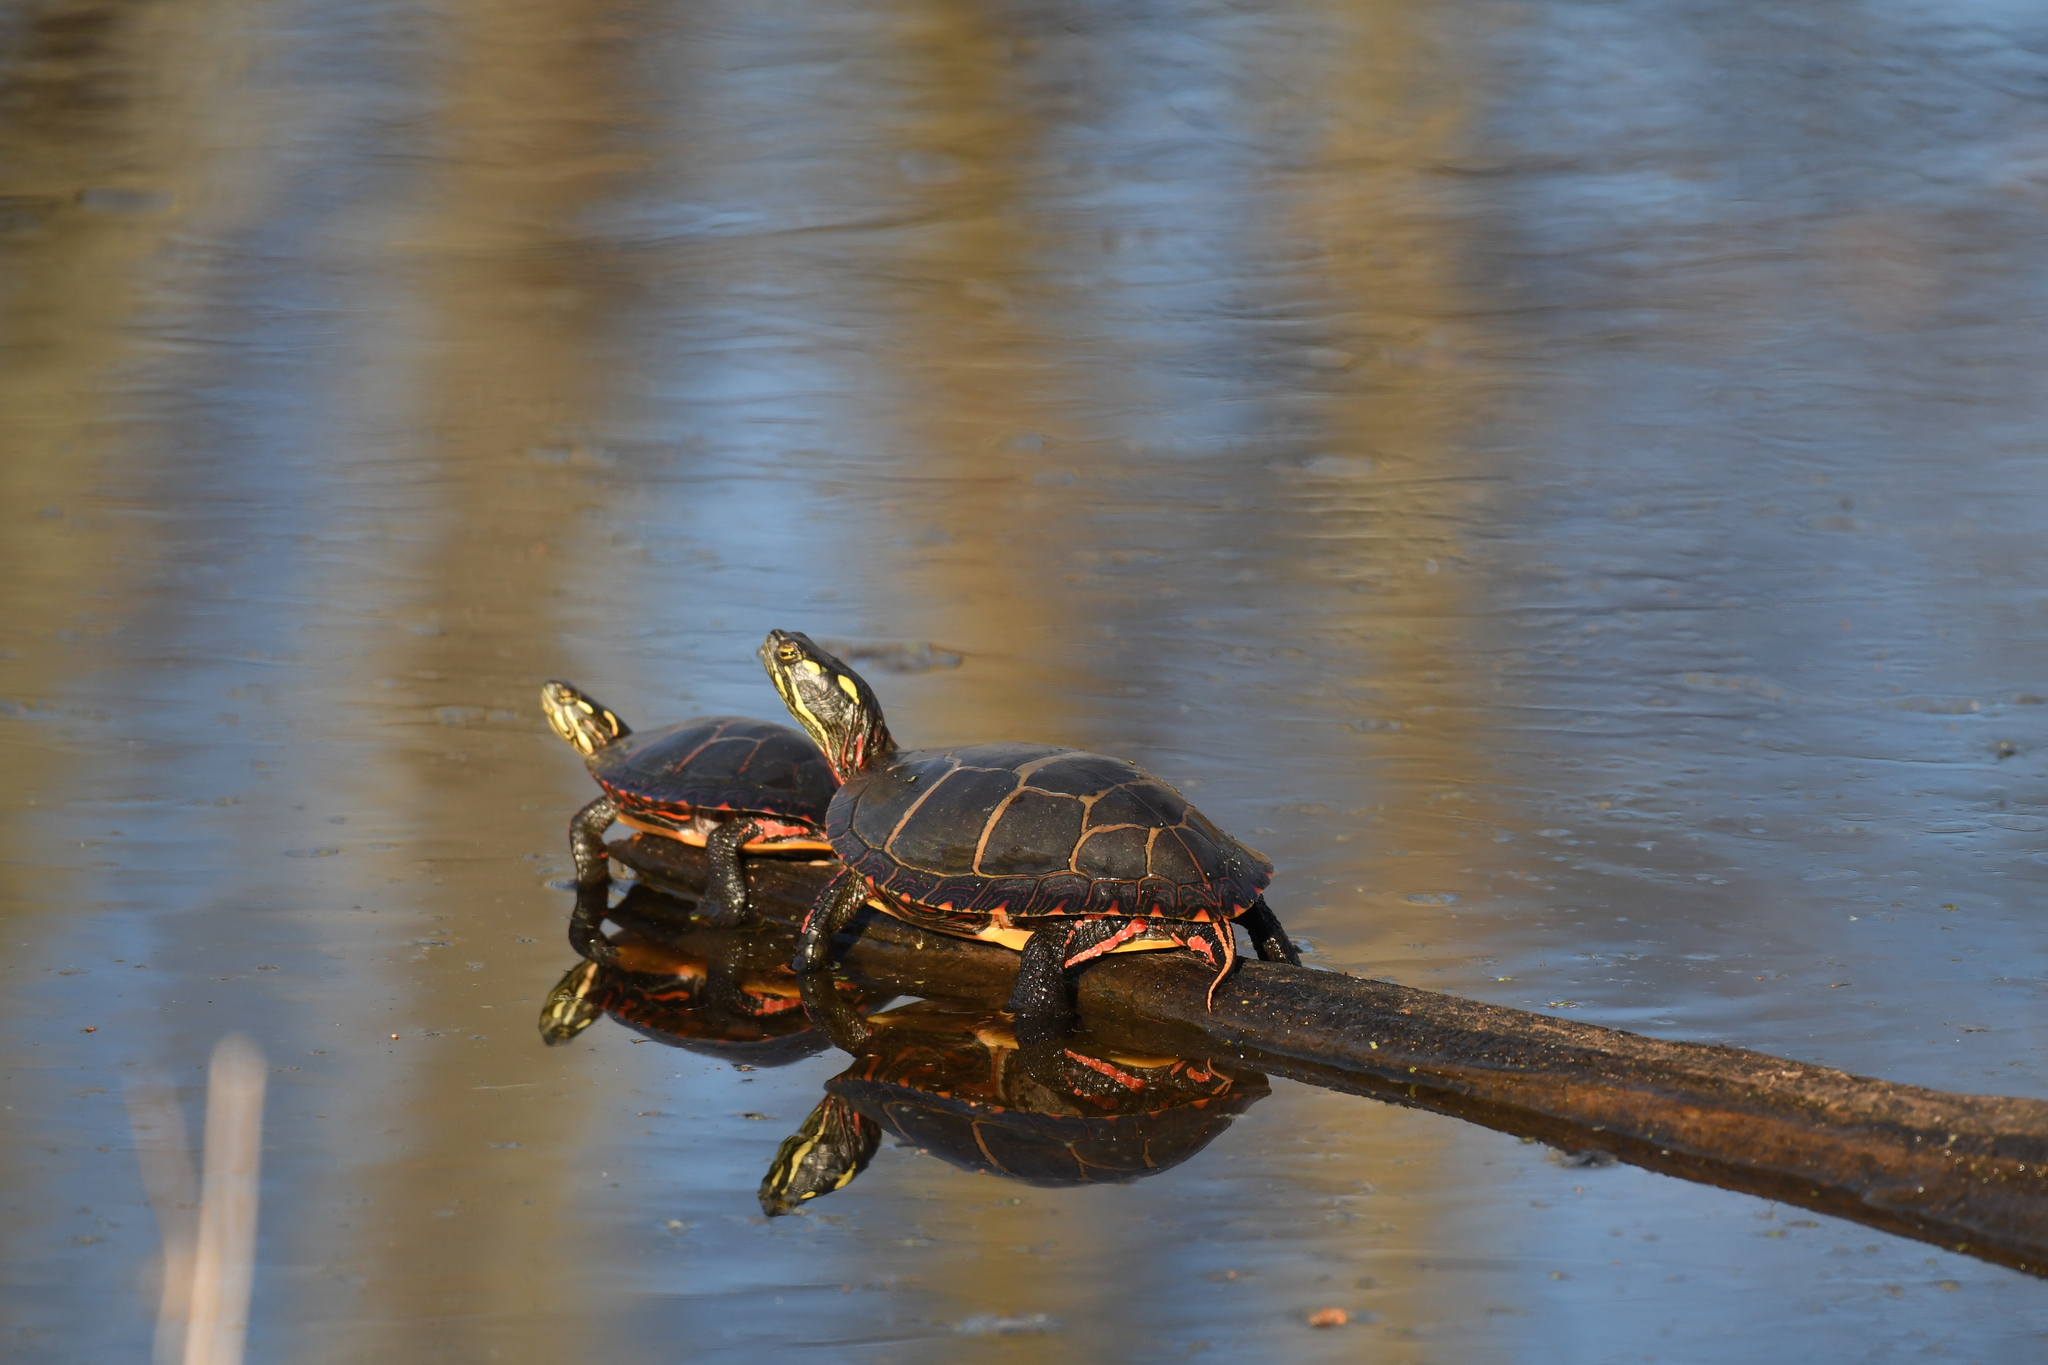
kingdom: Animalia
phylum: Chordata
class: Testudines
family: Emydidae
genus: Chrysemys
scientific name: Chrysemys picta
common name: Painted turtle
